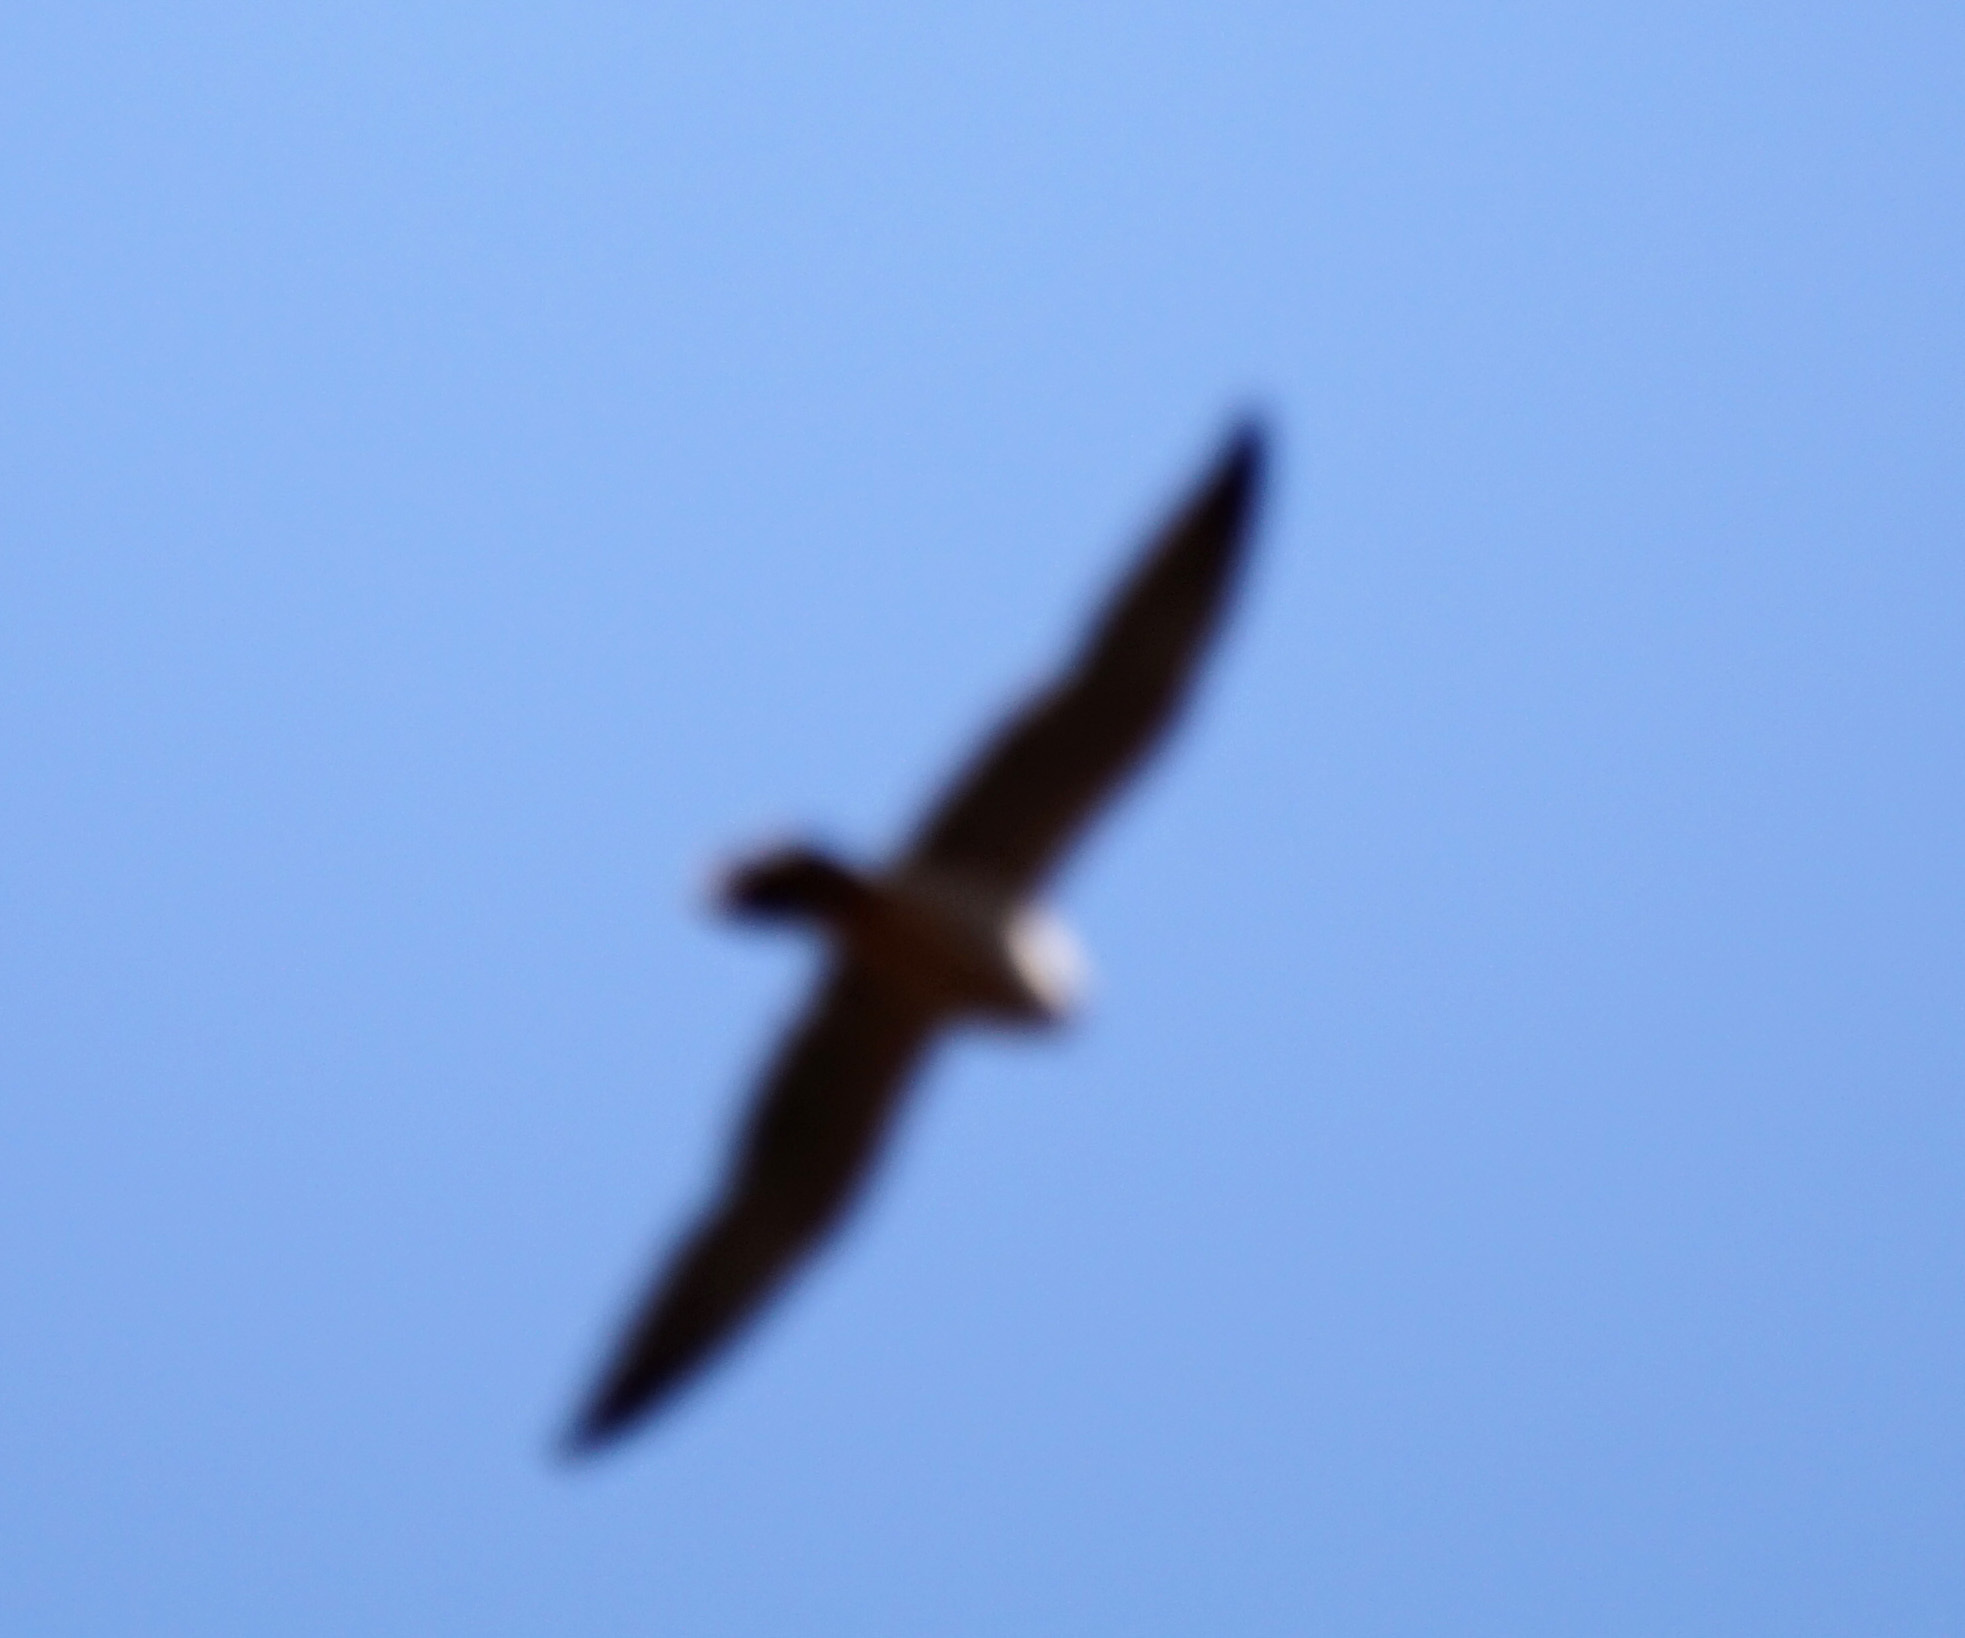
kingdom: Animalia
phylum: Chordata
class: Aves
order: Falconiformes
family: Falconidae
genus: Falco
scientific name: Falco biarmicus
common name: Lanner falcon
